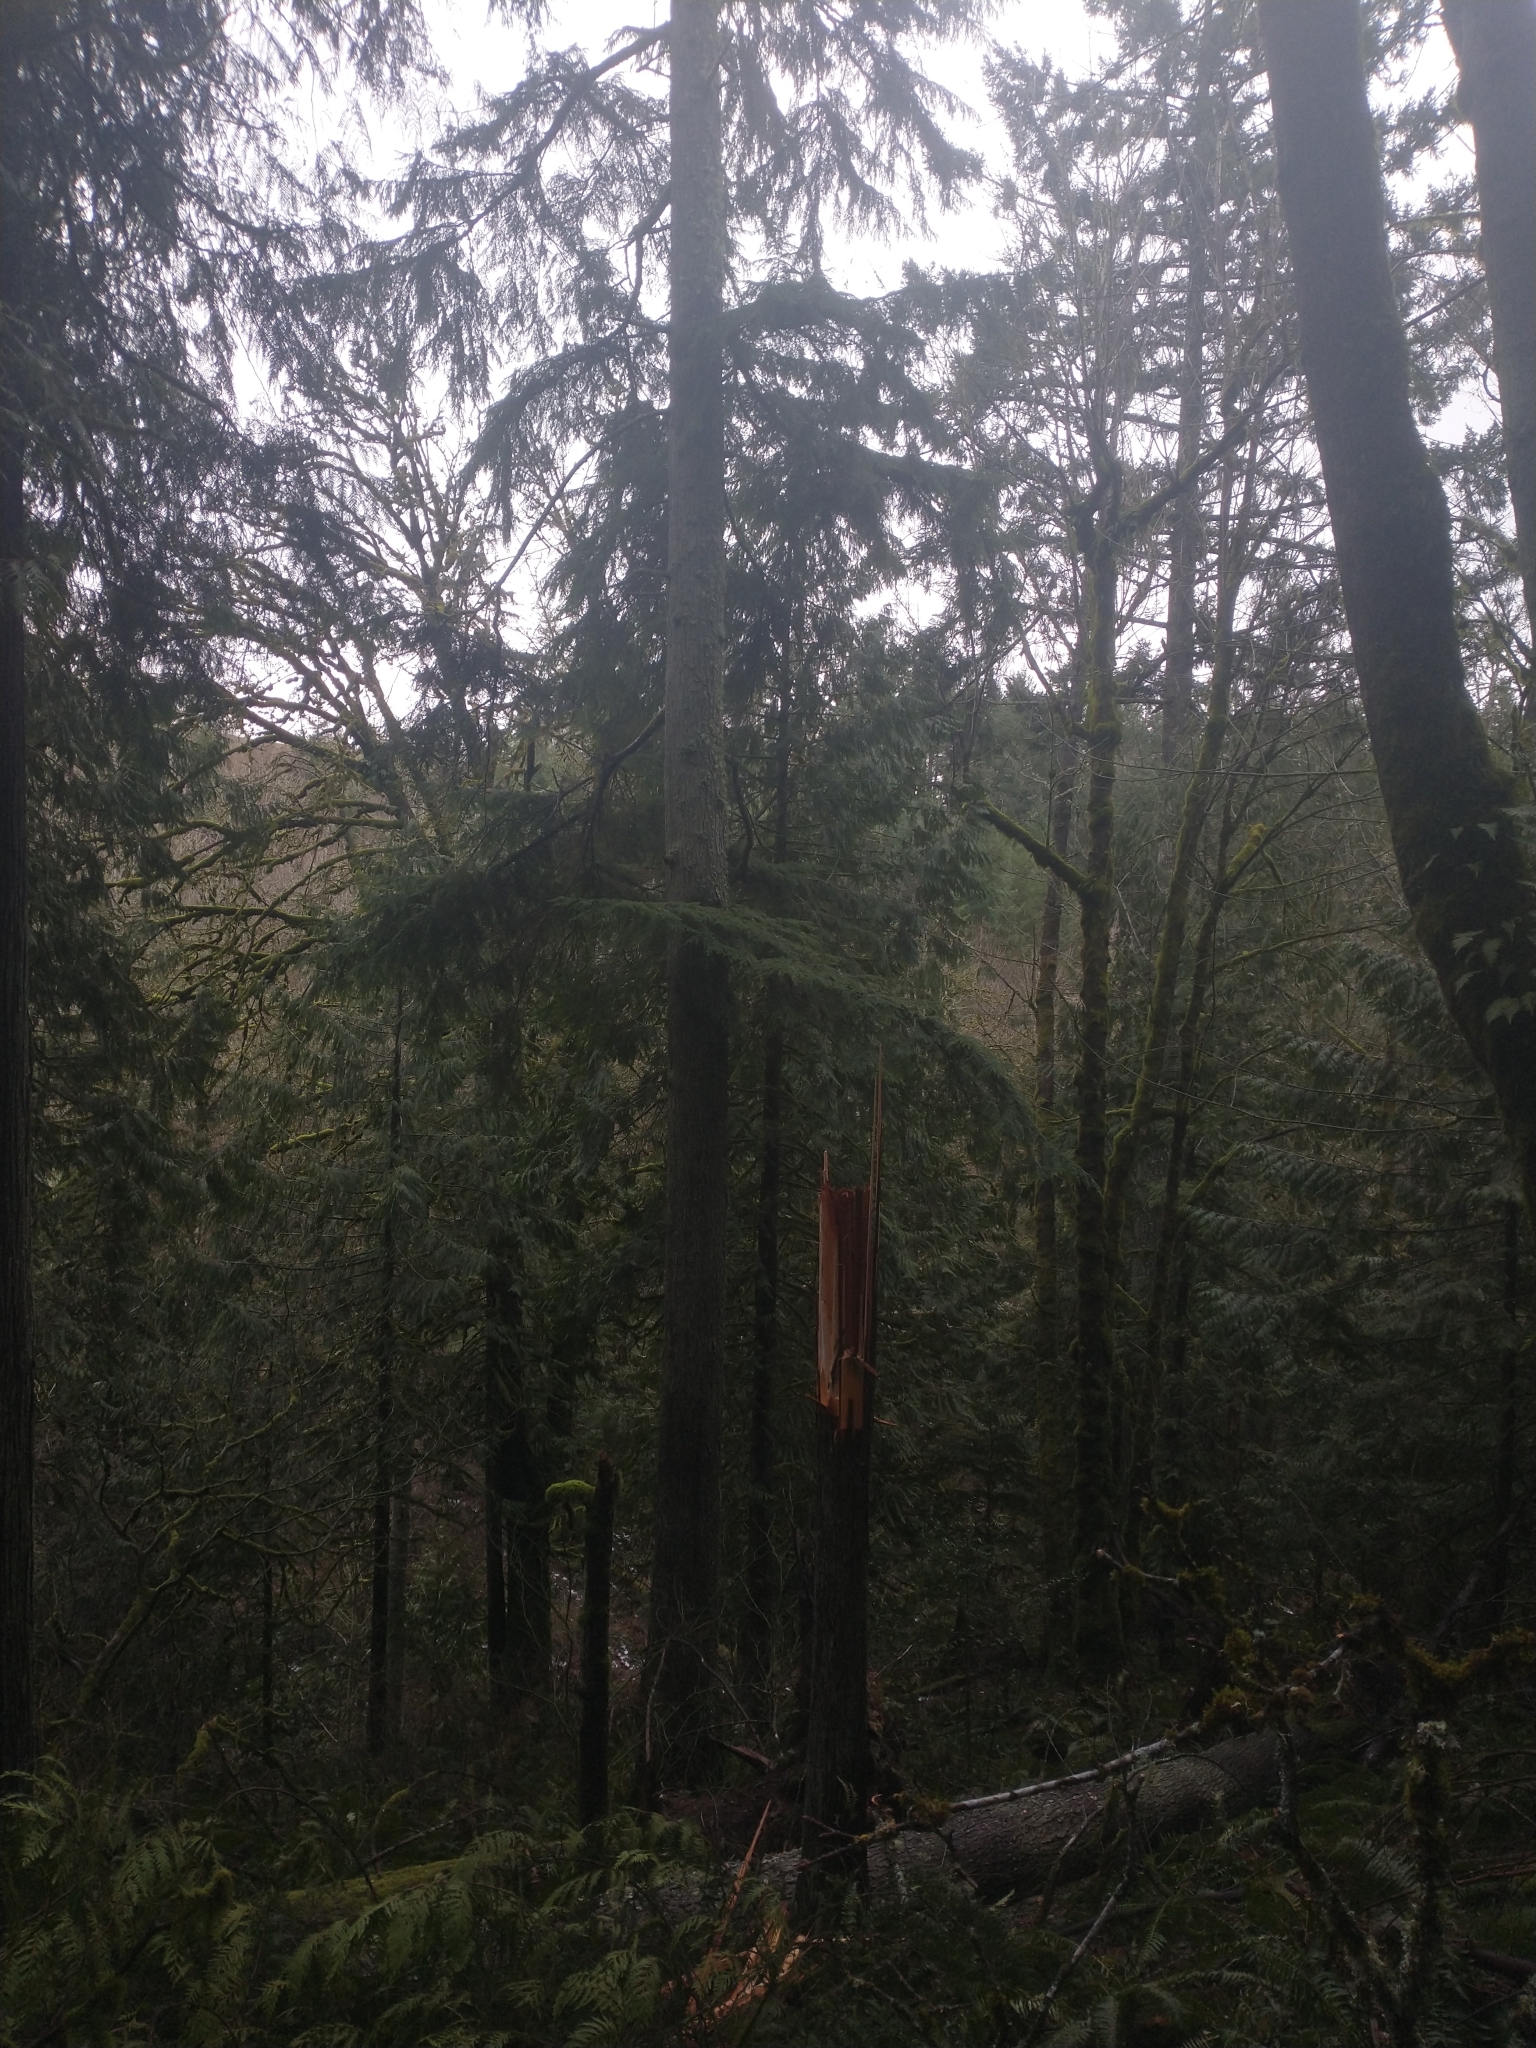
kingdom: Plantae
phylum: Tracheophyta
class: Pinopsida
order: Pinales
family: Pinaceae
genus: Tsuga
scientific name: Tsuga heterophylla
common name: Western hemlock
